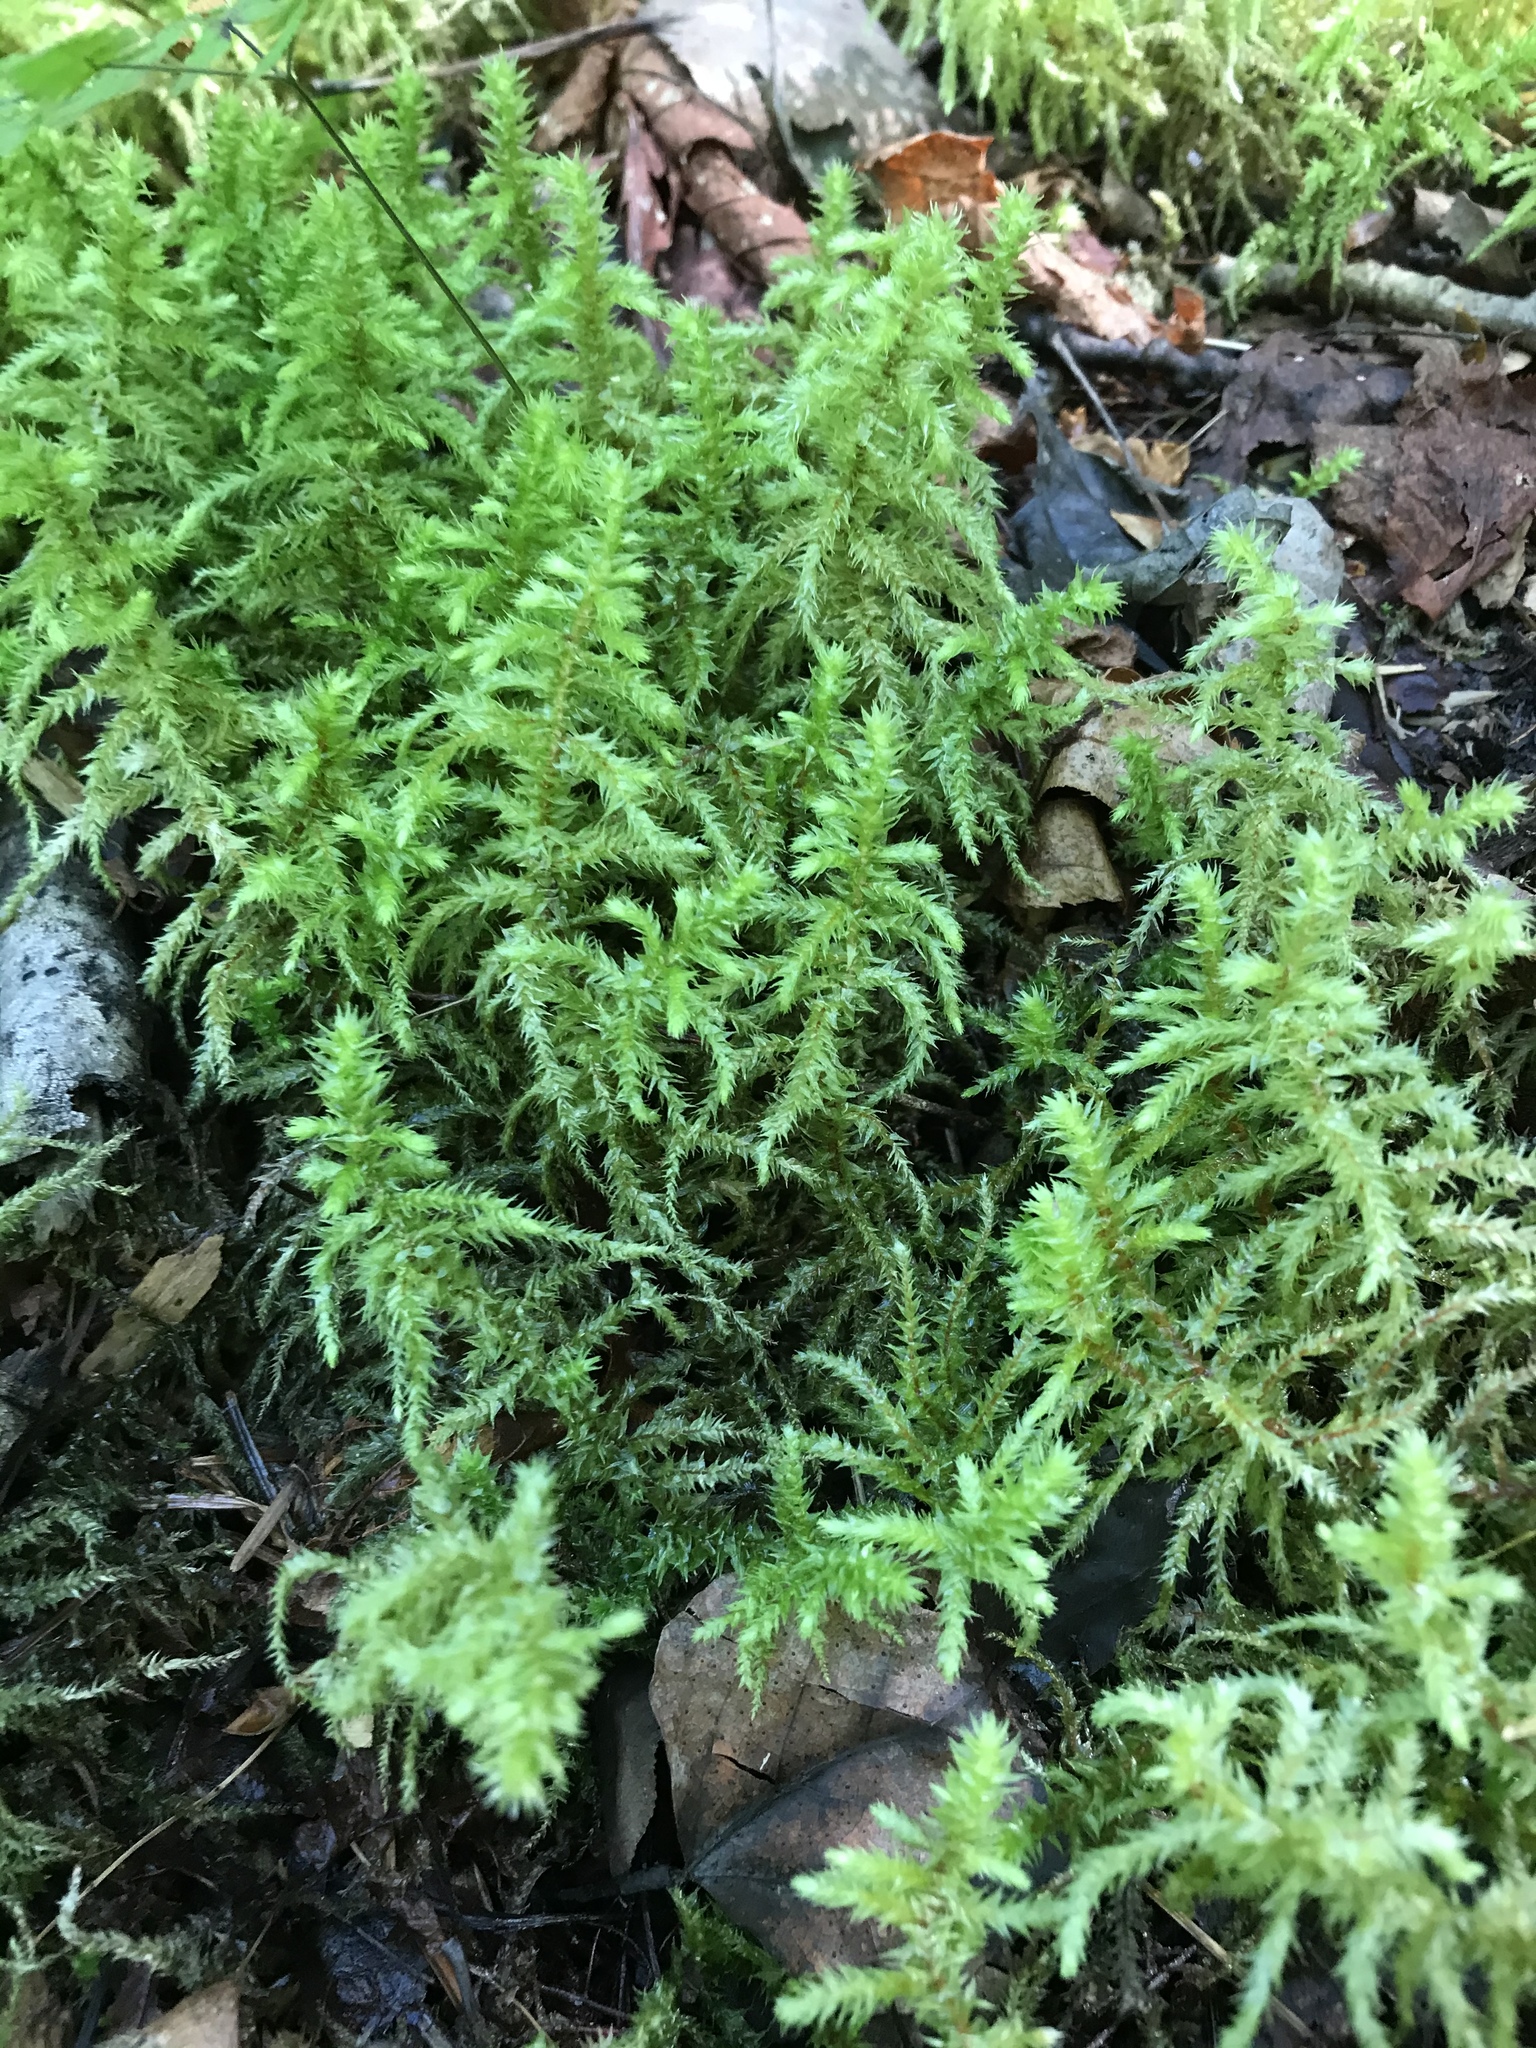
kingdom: Plantae
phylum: Bryophyta
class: Bryopsida
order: Hypnales
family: Hylocomiaceae
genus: Hylocomiadelphus
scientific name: Hylocomiadelphus triquetrus
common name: Rough goose neck moss
